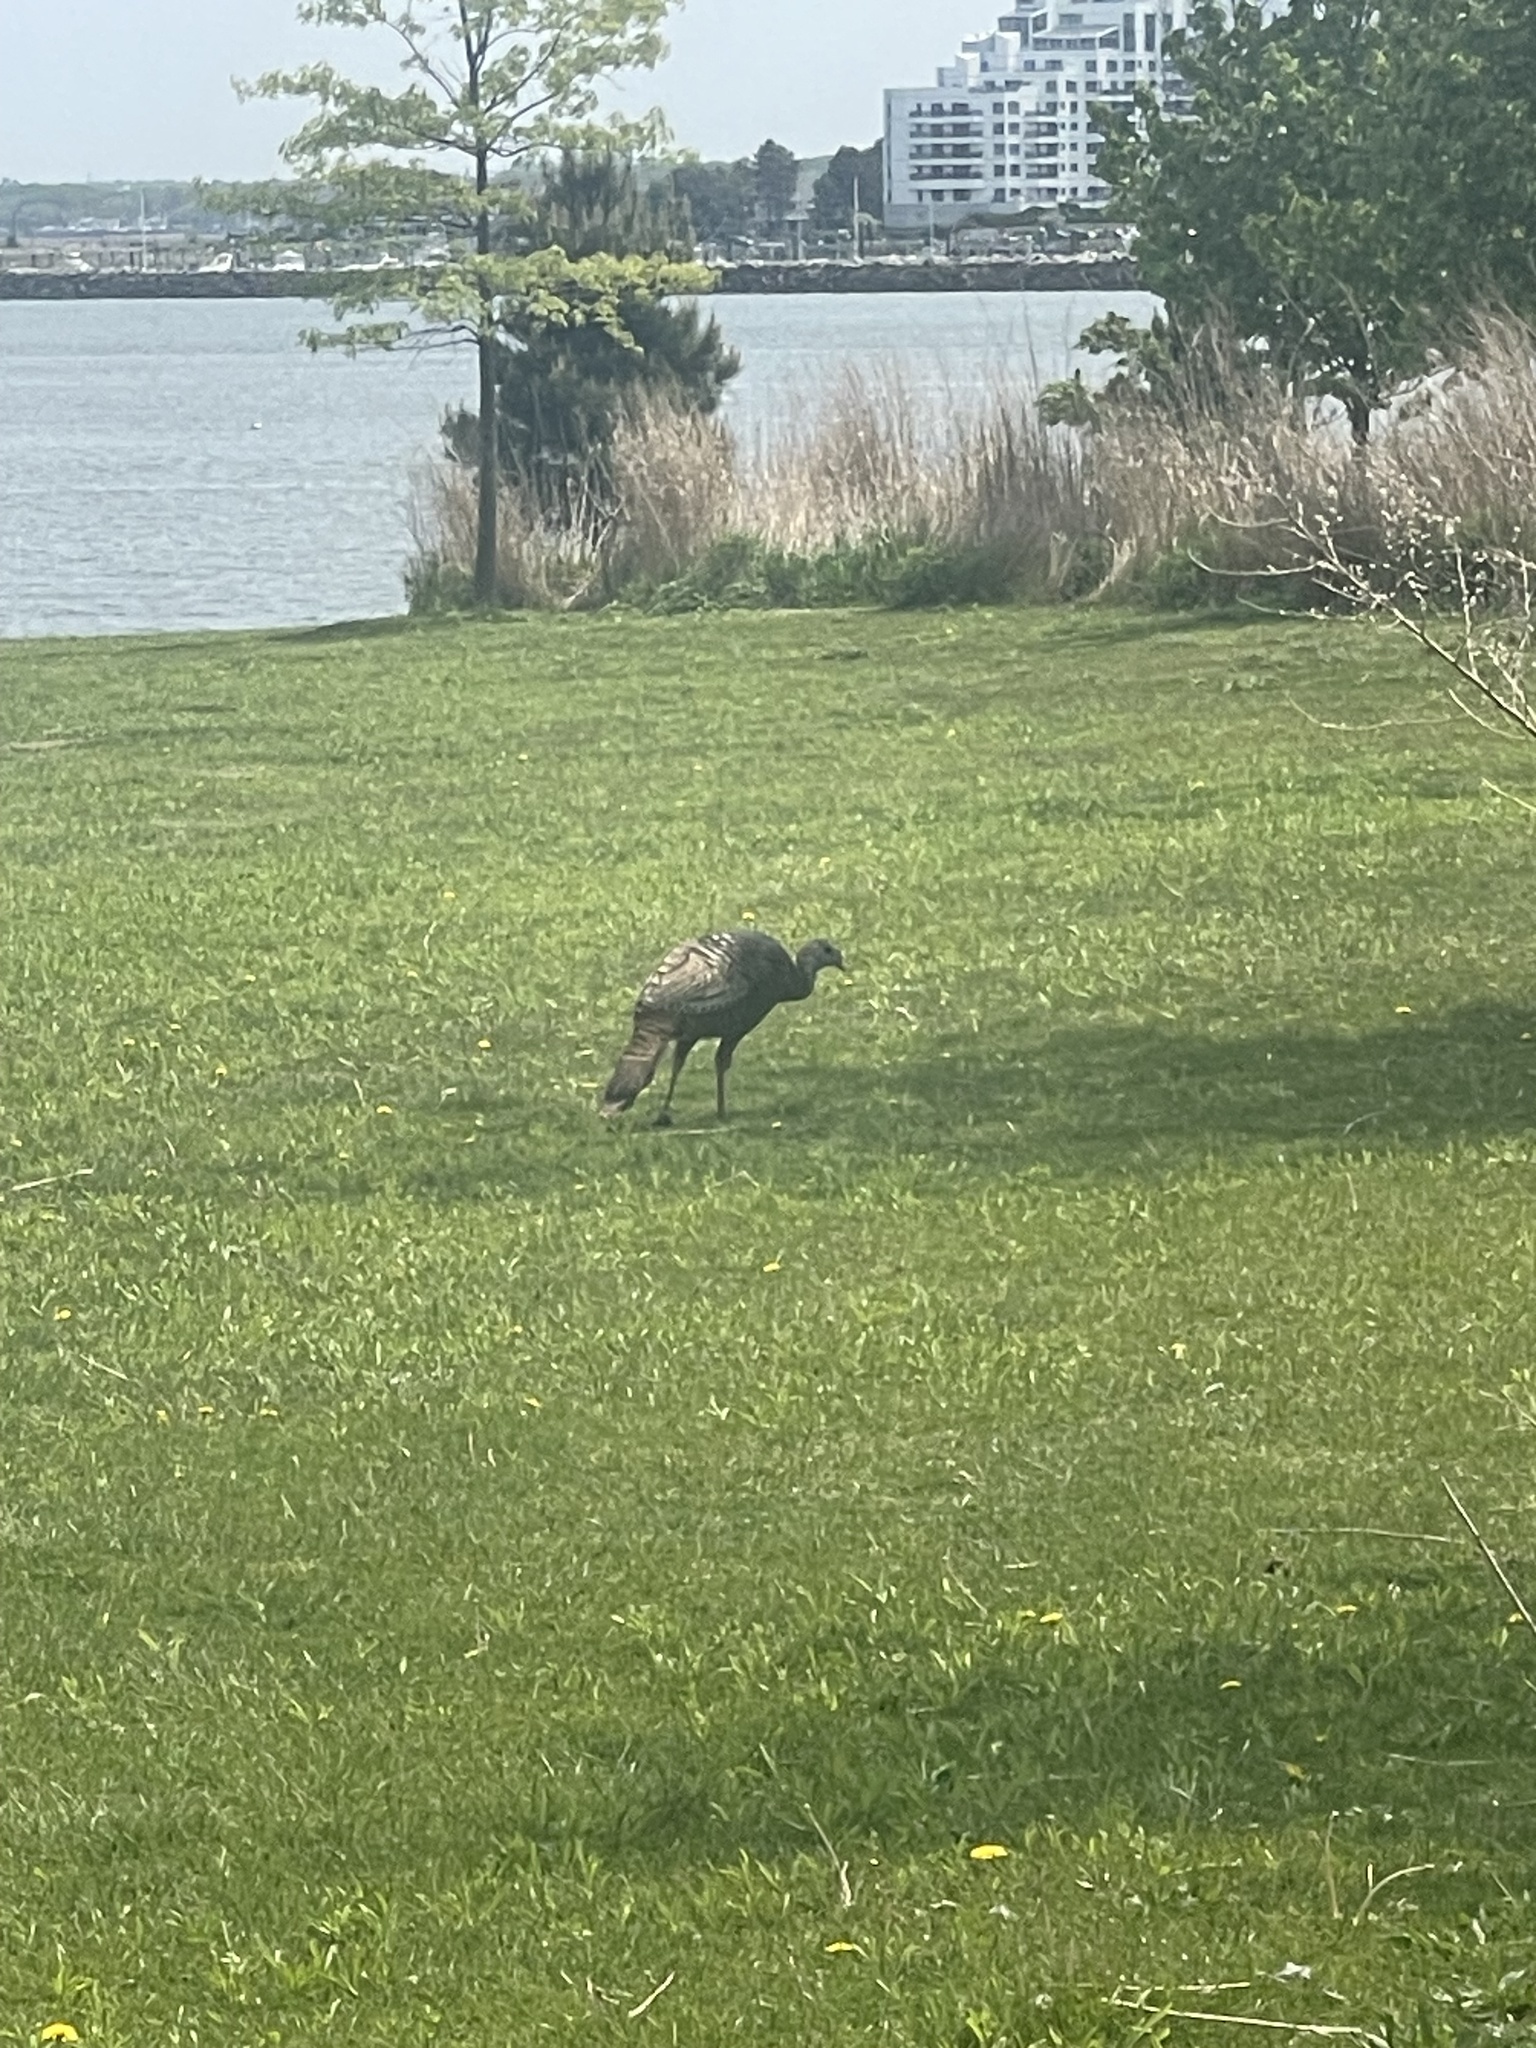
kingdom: Animalia
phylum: Chordata
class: Aves
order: Galliformes
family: Phasianidae
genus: Meleagris
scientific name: Meleagris gallopavo
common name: Wild turkey
